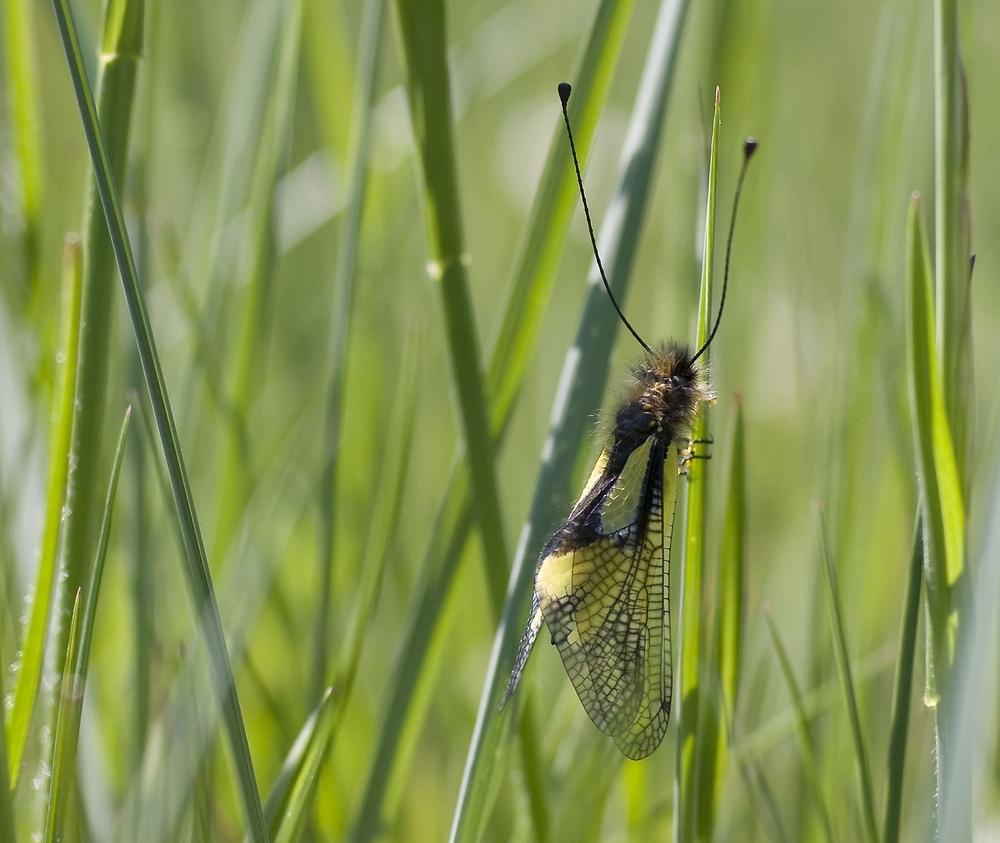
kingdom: Animalia
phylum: Arthropoda
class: Insecta
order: Neuroptera
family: Ascalaphidae
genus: Libelloides
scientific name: Libelloides coccajus
